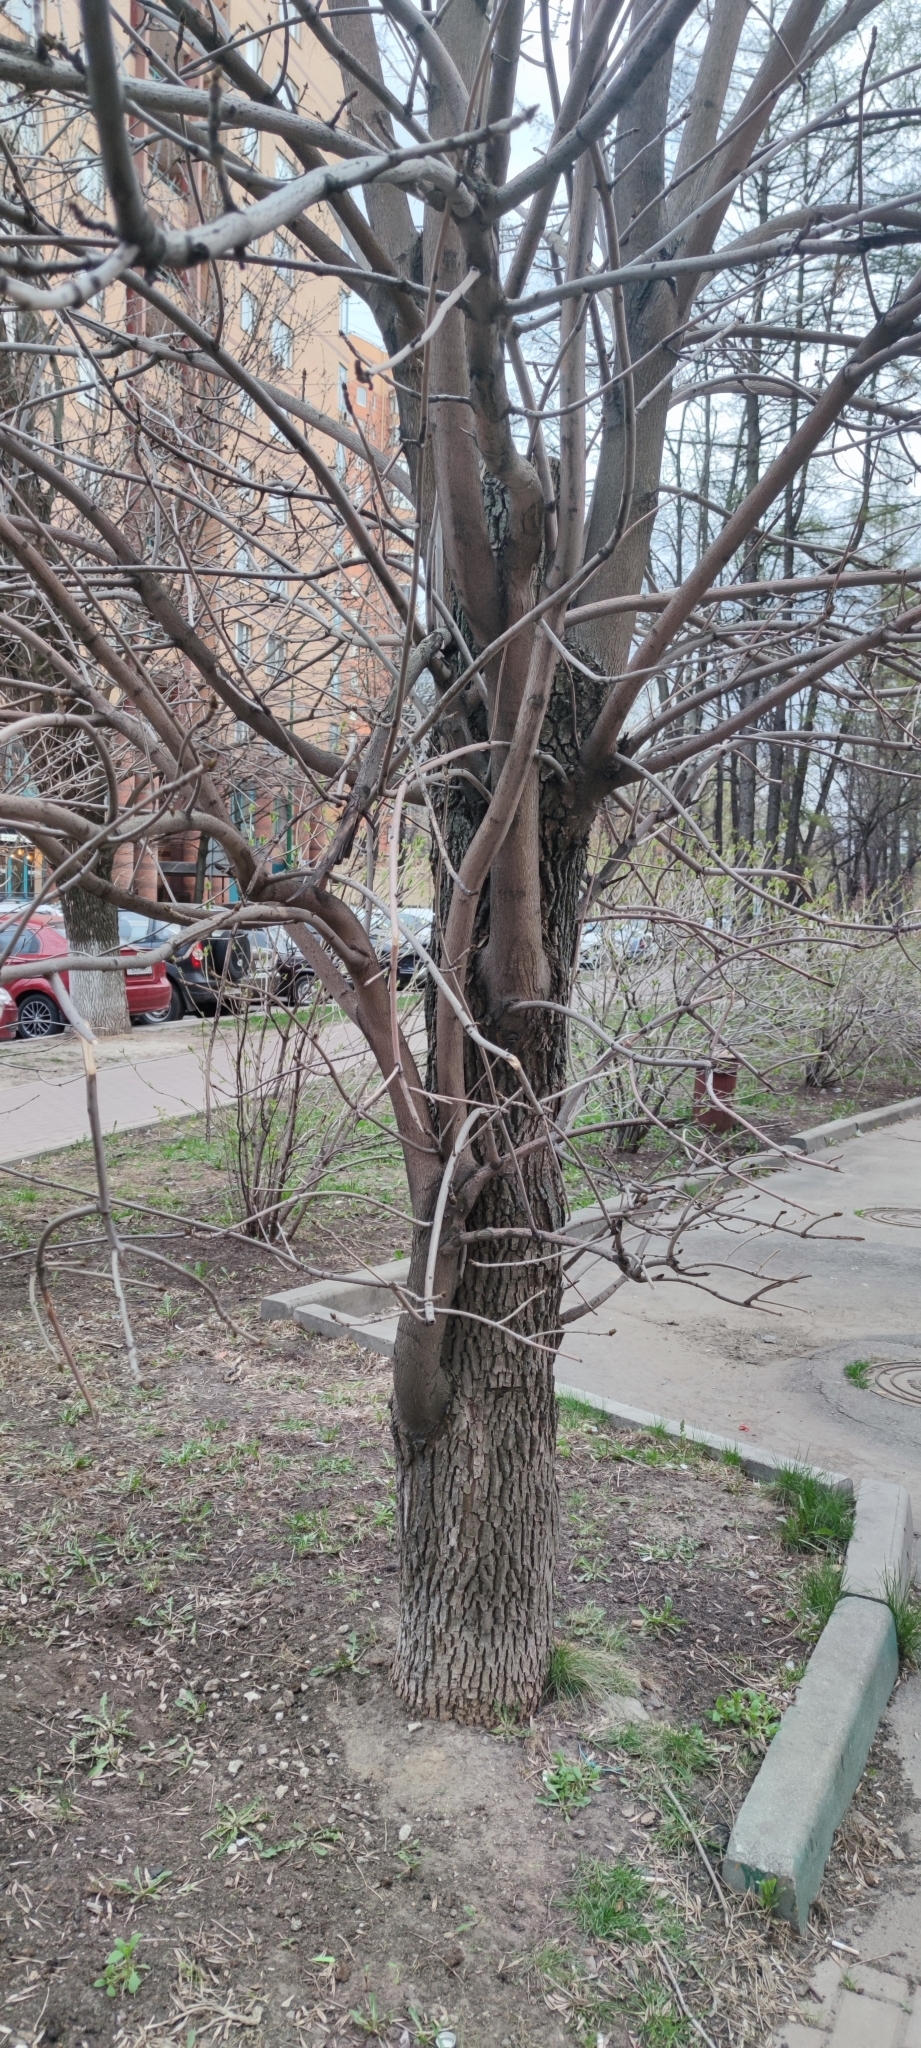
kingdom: Plantae
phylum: Tracheophyta
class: Magnoliopsida
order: Lamiales
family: Oleaceae
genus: Fraxinus
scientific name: Fraxinus pennsylvanica
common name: Green ash
